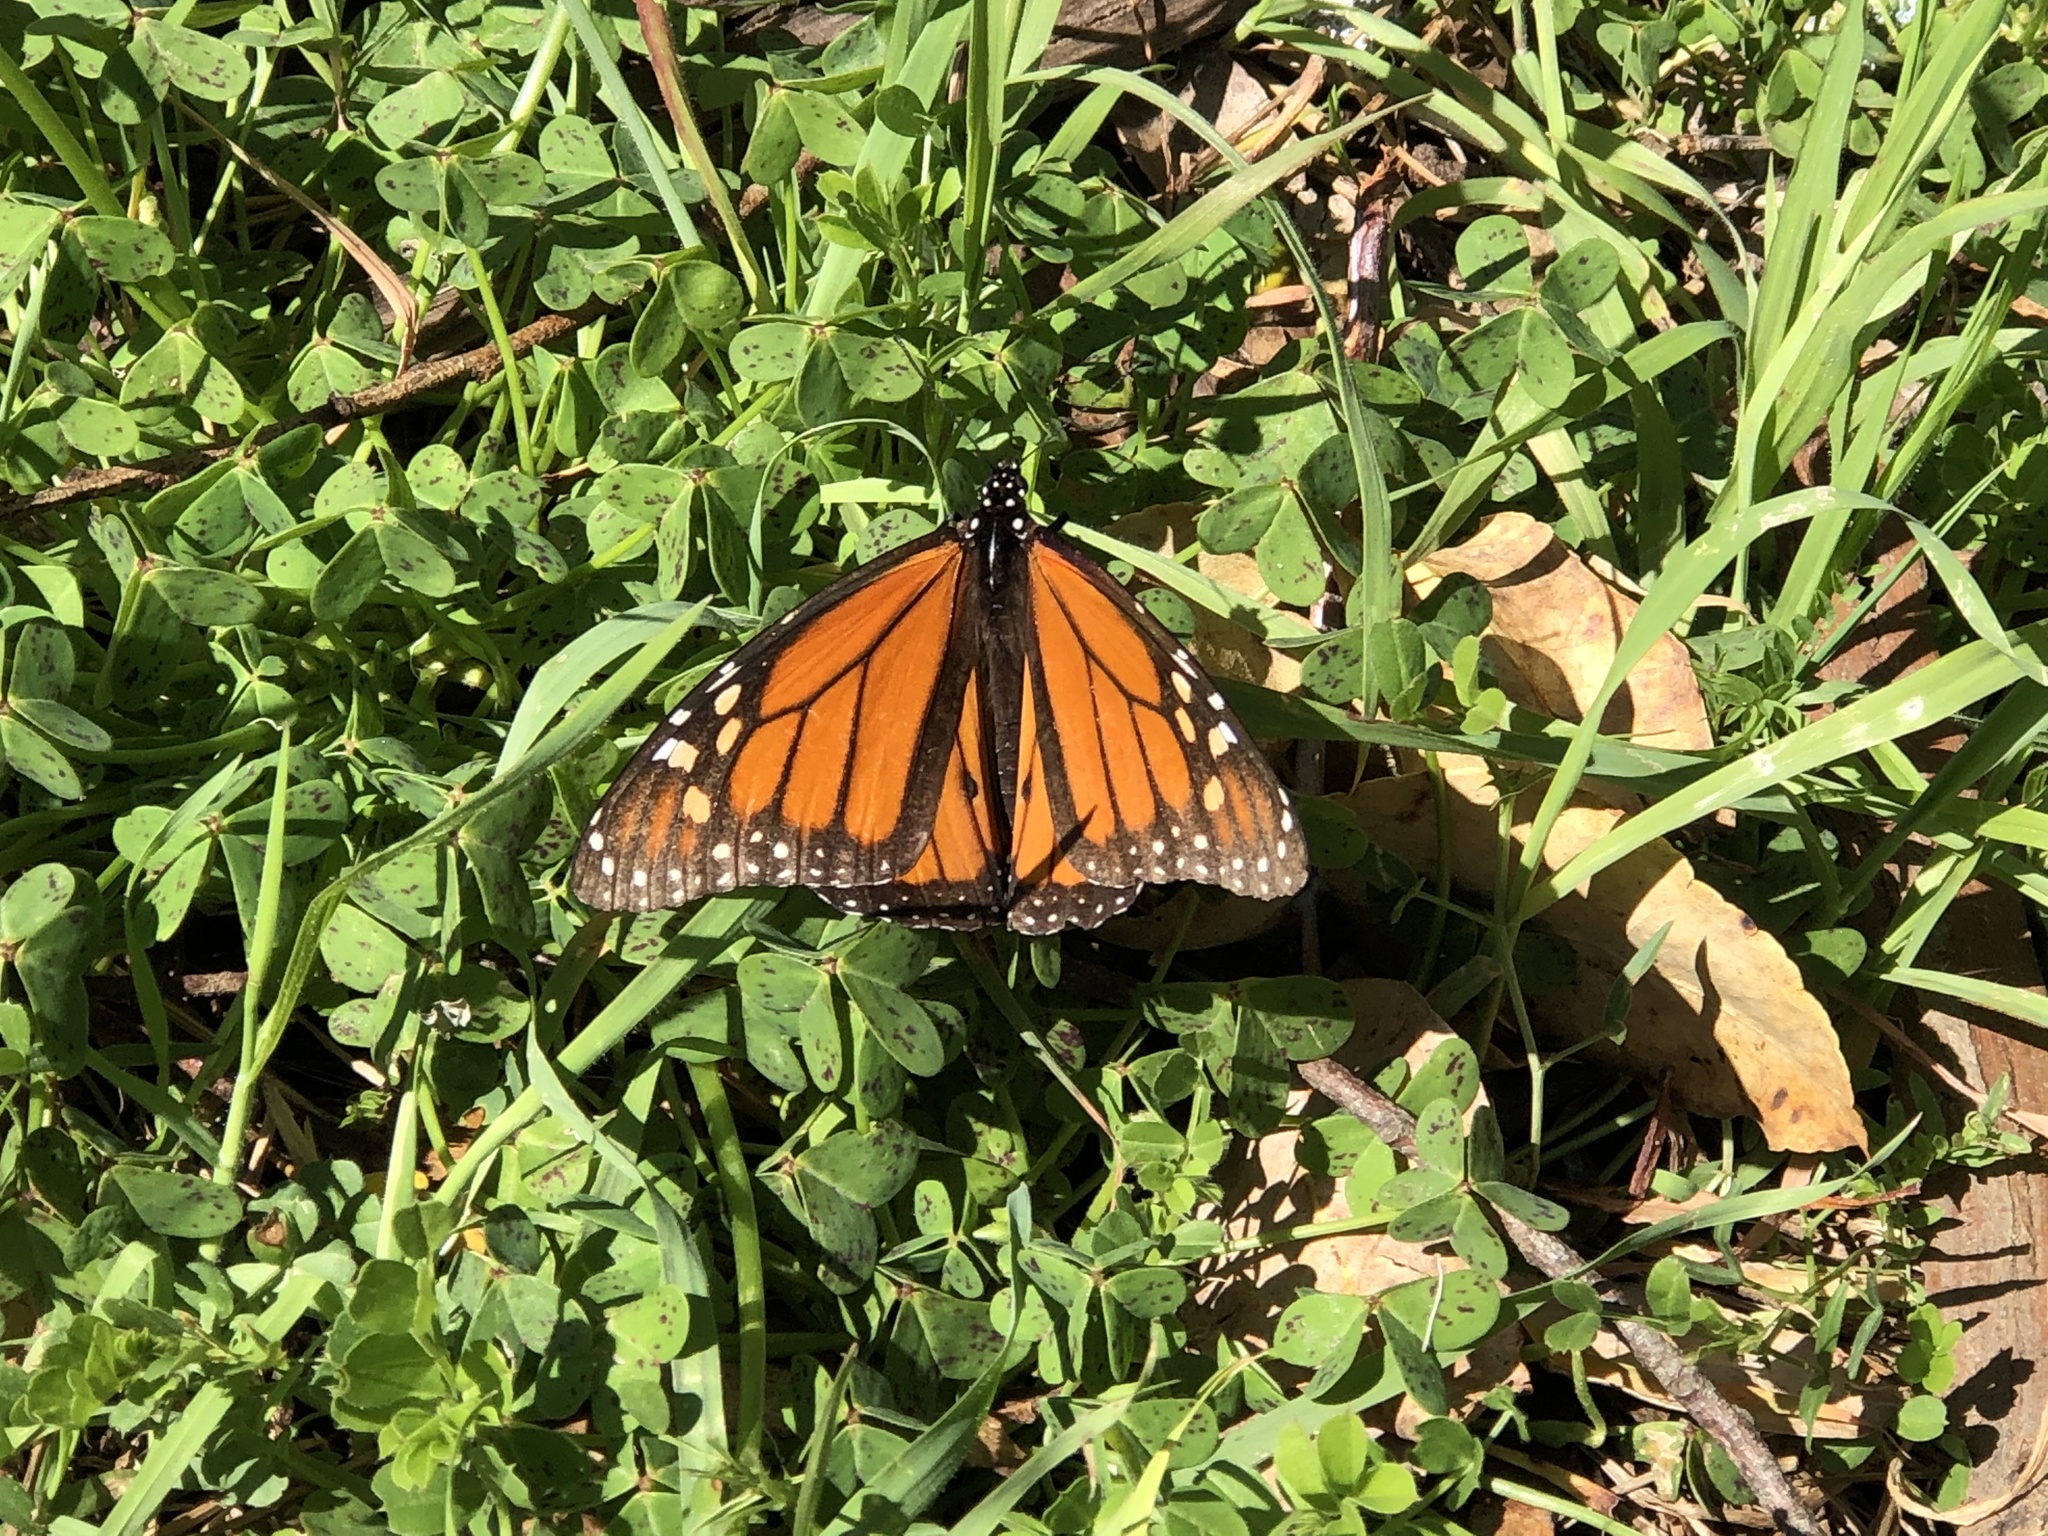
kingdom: Animalia
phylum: Arthropoda
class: Insecta
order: Lepidoptera
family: Nymphalidae
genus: Danaus
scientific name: Danaus plexippus
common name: Monarch
